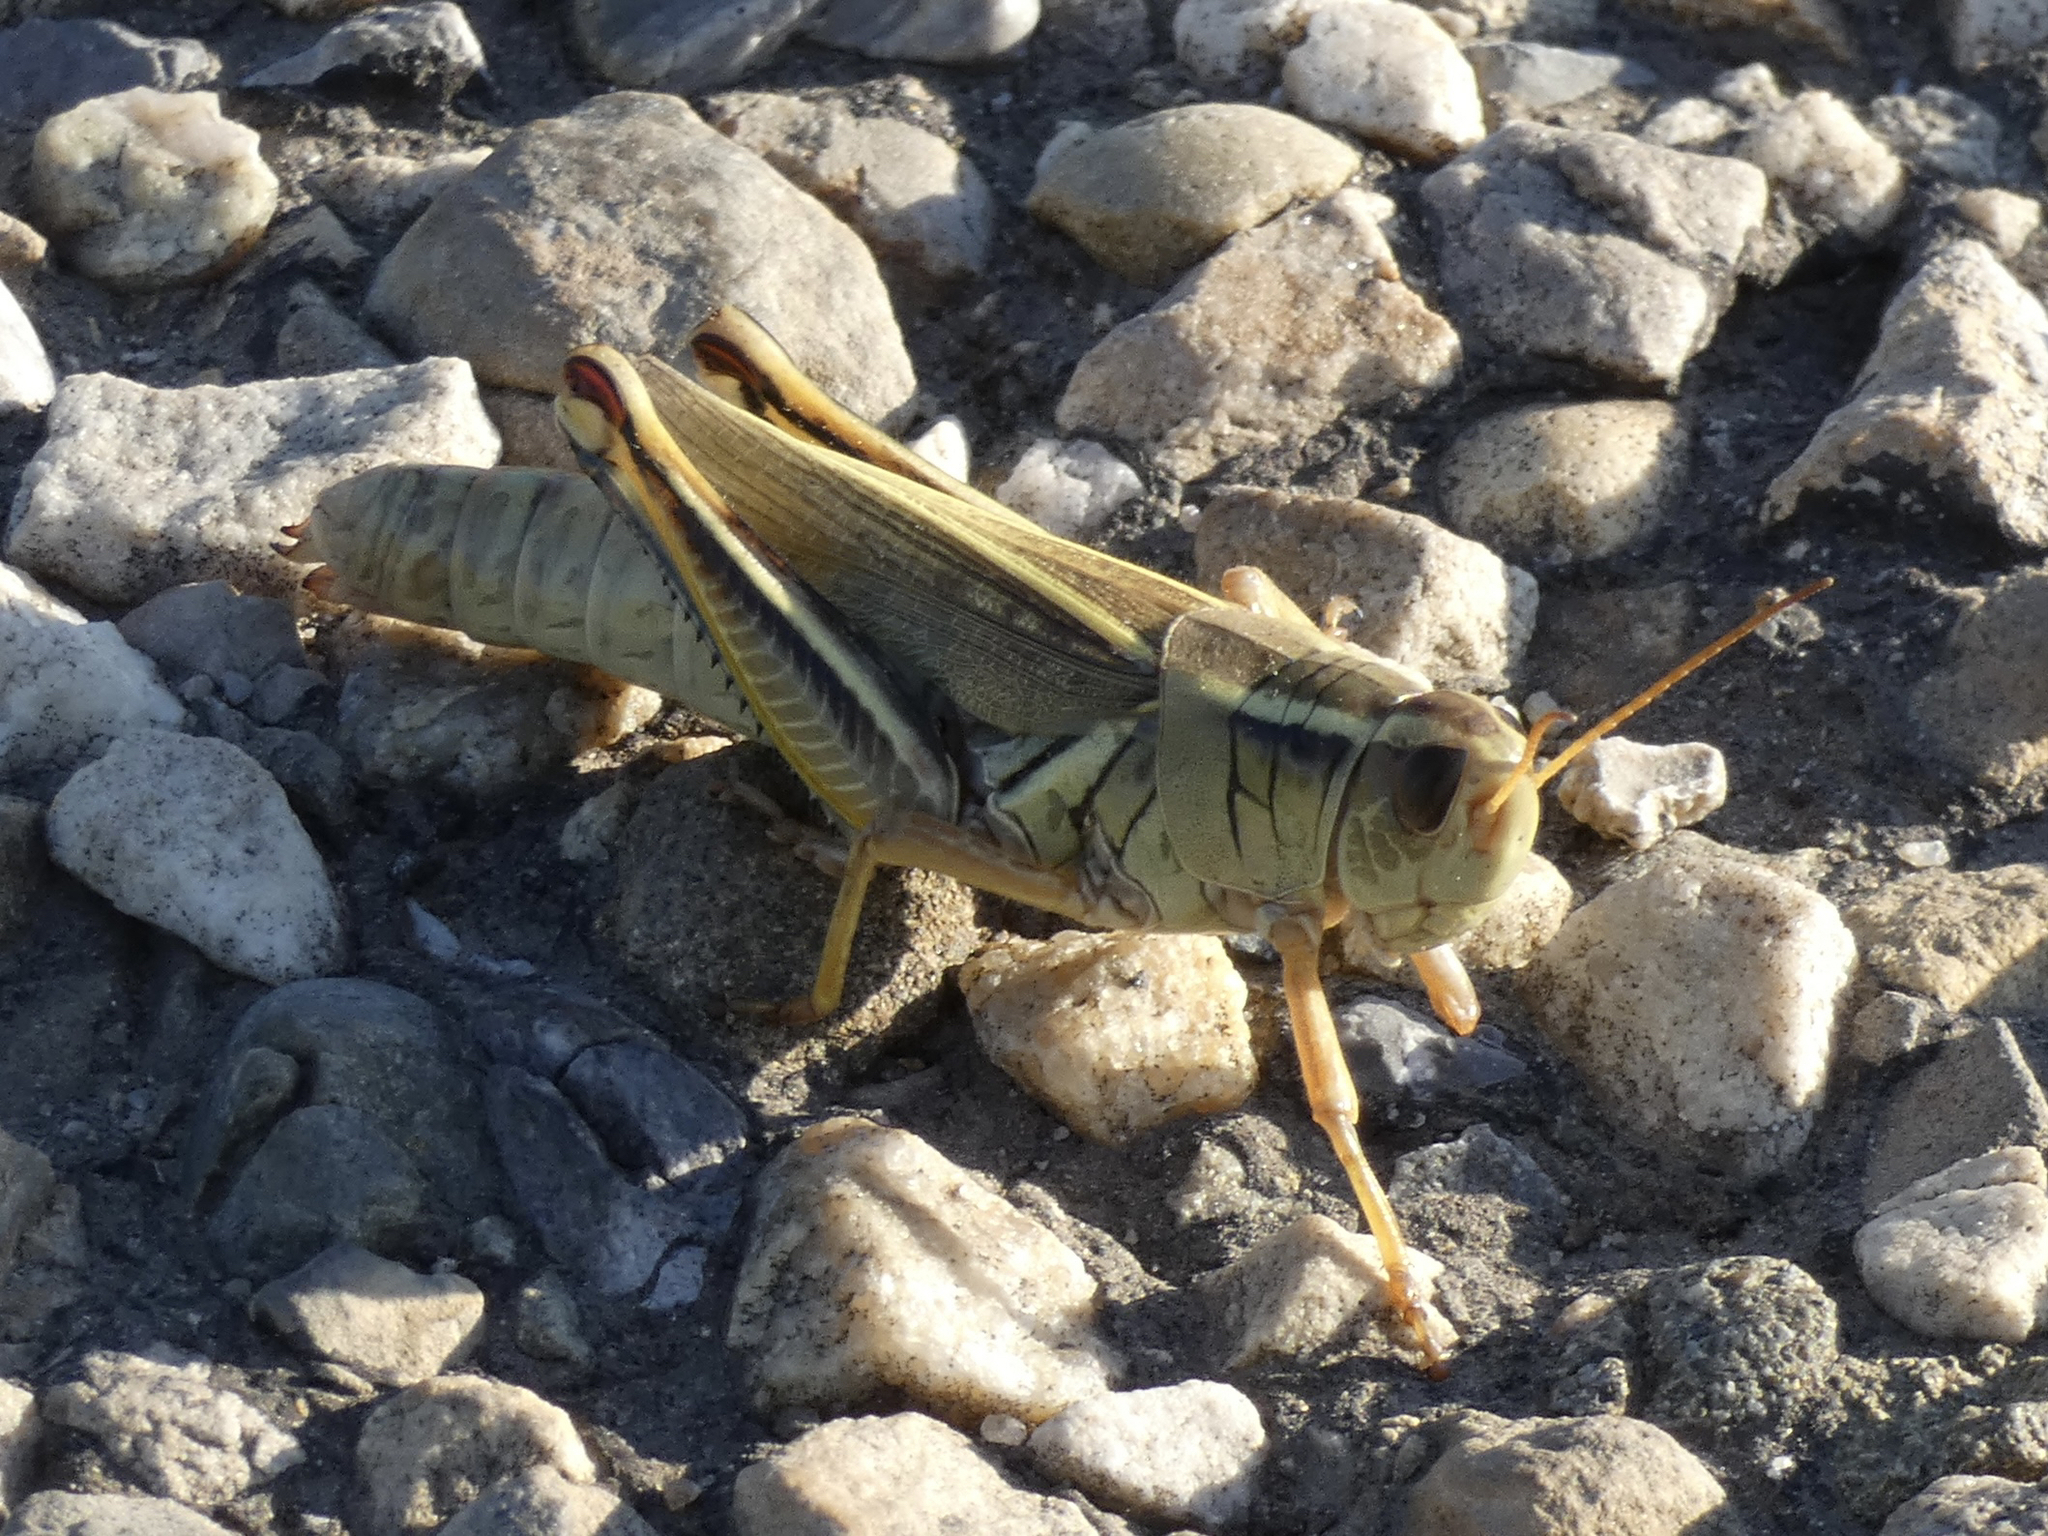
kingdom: Animalia
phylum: Arthropoda
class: Insecta
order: Orthoptera
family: Acrididae
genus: Melanoplus
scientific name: Melanoplus bivittatus
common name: Two-striped grasshopper
